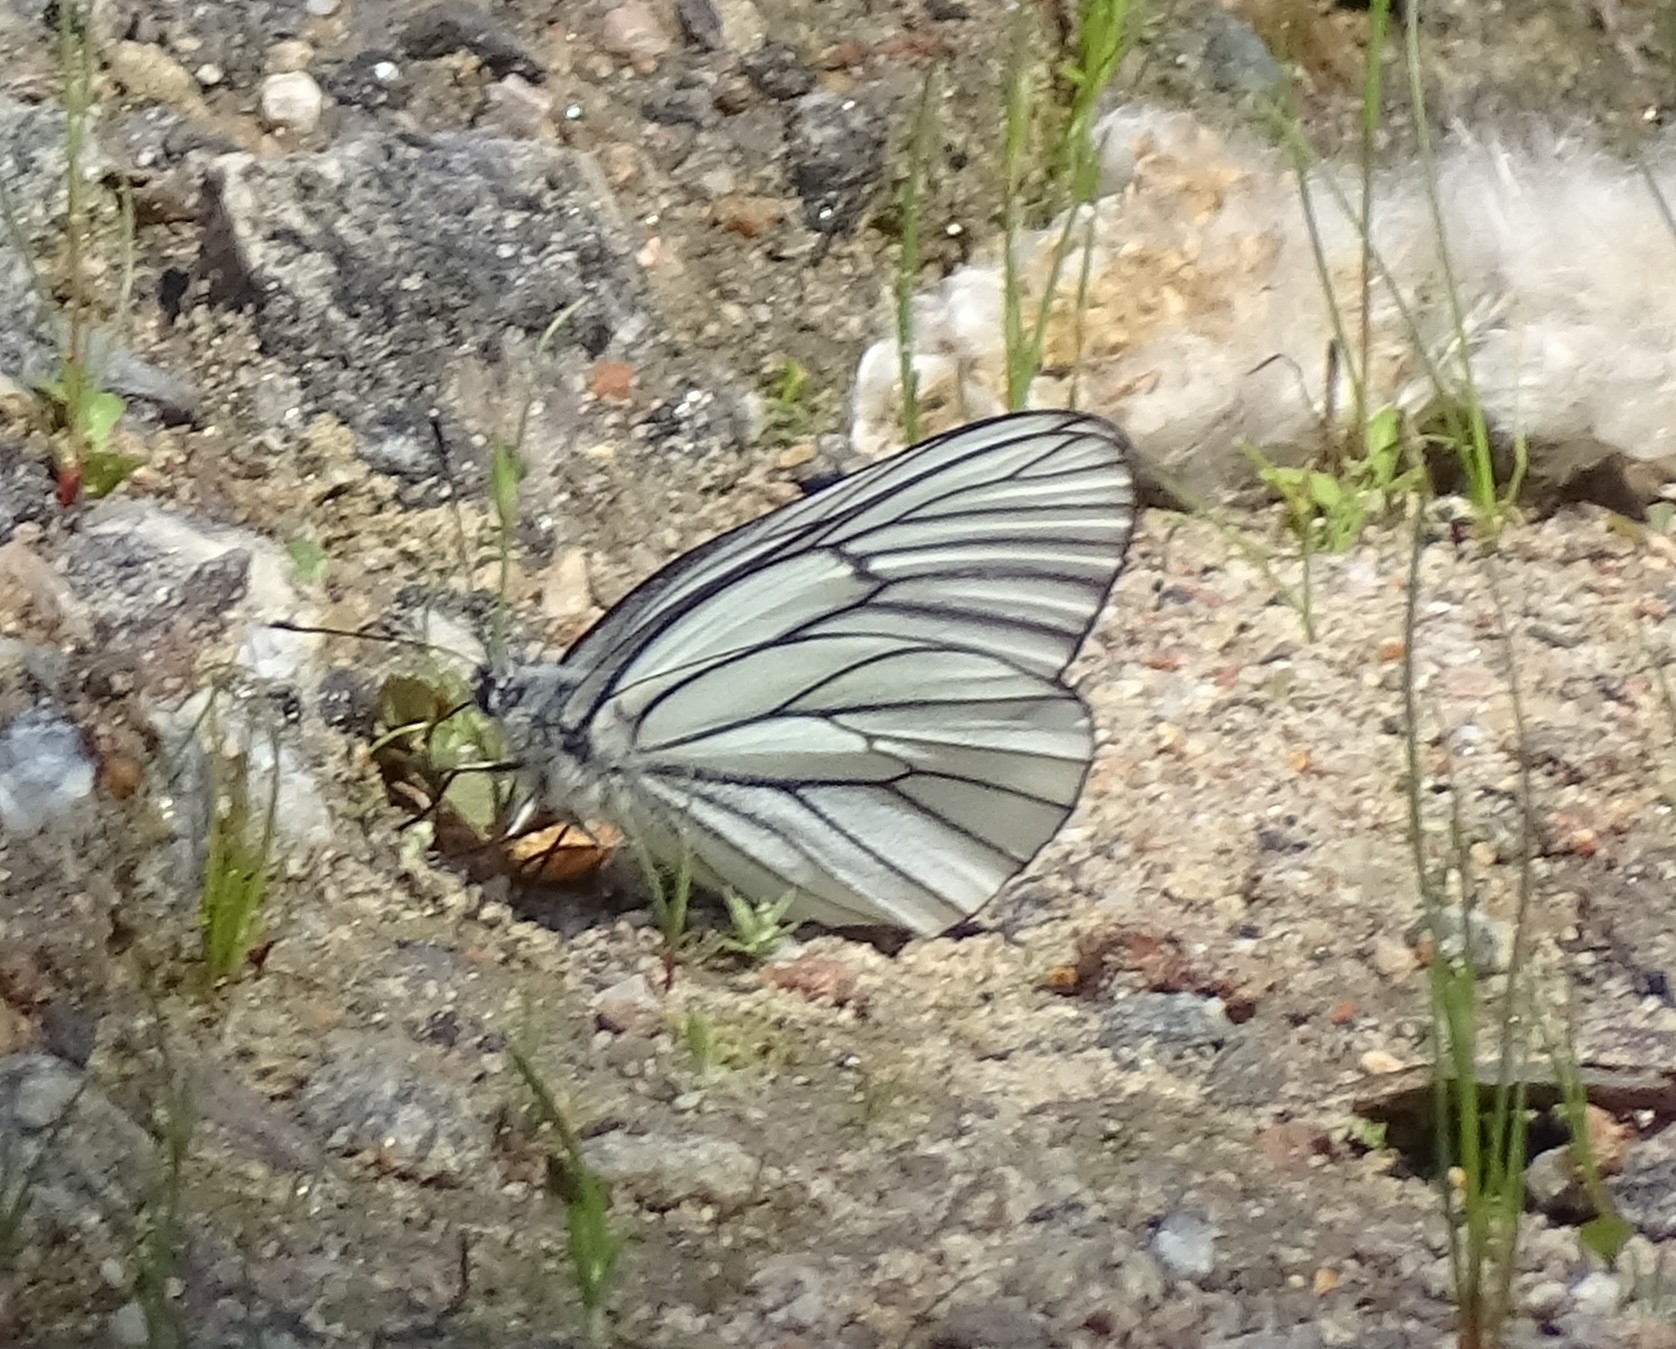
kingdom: Animalia
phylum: Arthropoda
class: Insecta
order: Lepidoptera
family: Pieridae
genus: Aporia
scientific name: Aporia crataegi
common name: Black-veined white
